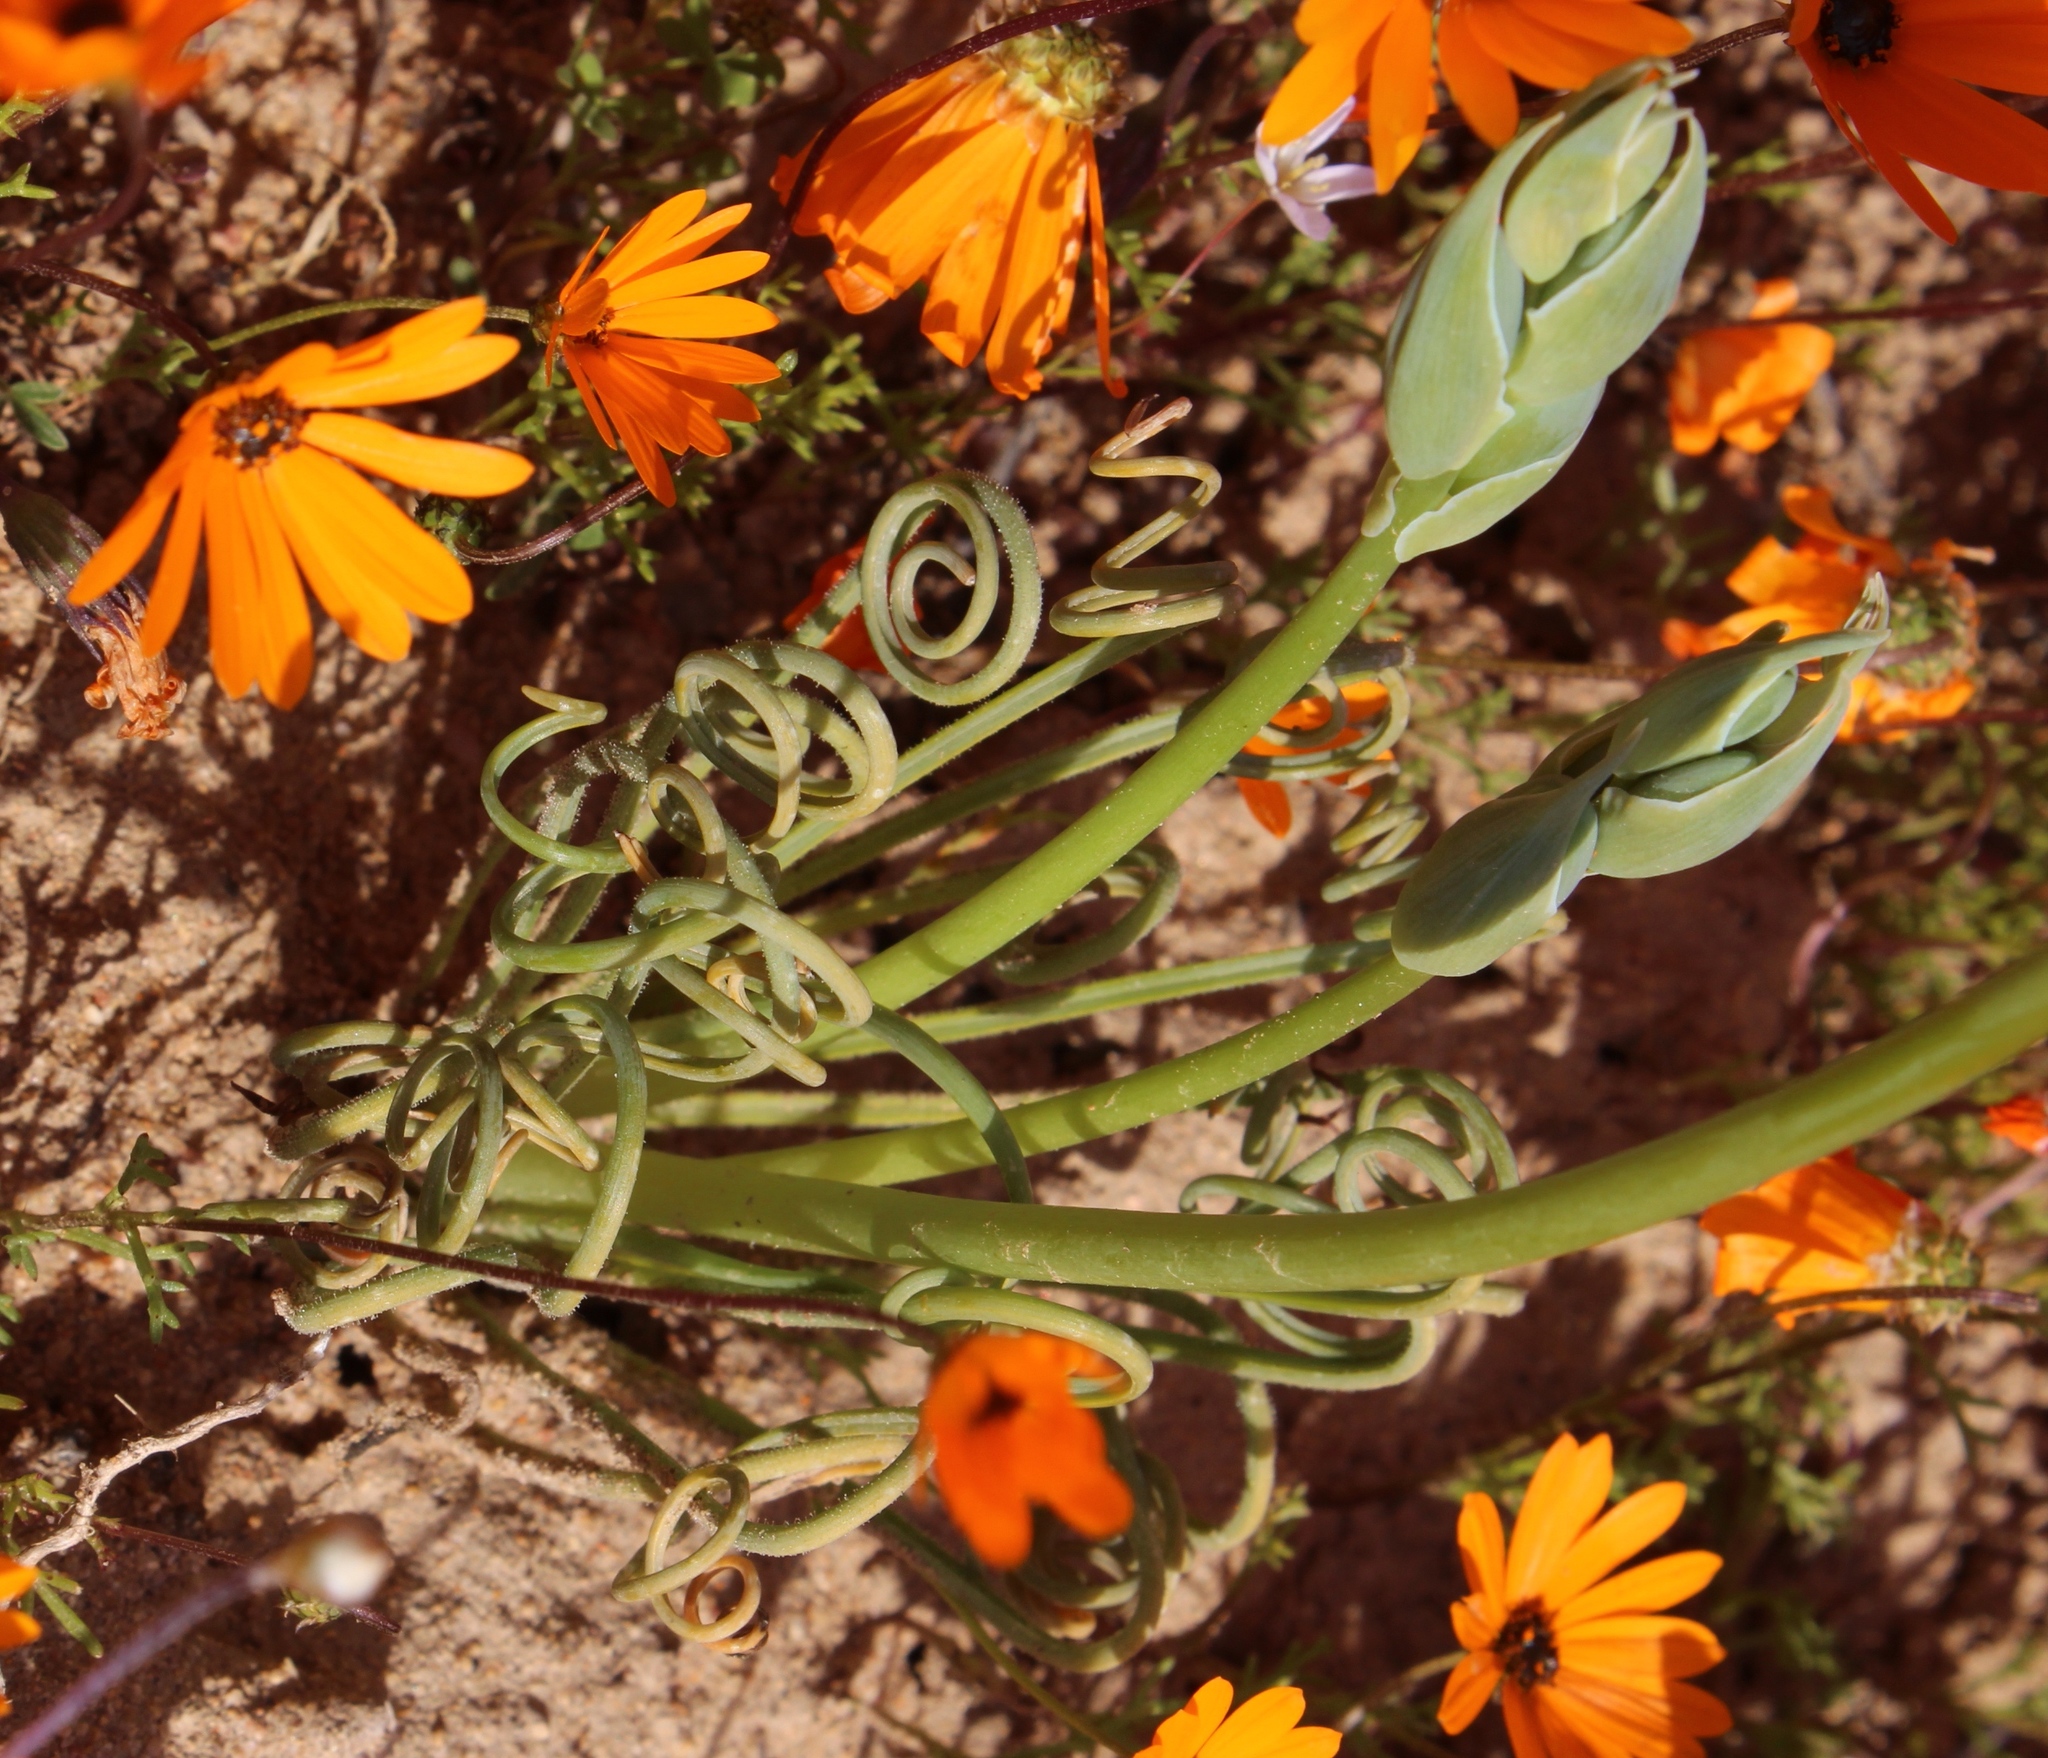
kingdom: Plantae
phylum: Tracheophyta
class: Liliopsida
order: Asparagales
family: Asparagaceae
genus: Albuca
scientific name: Albuca spiralis
